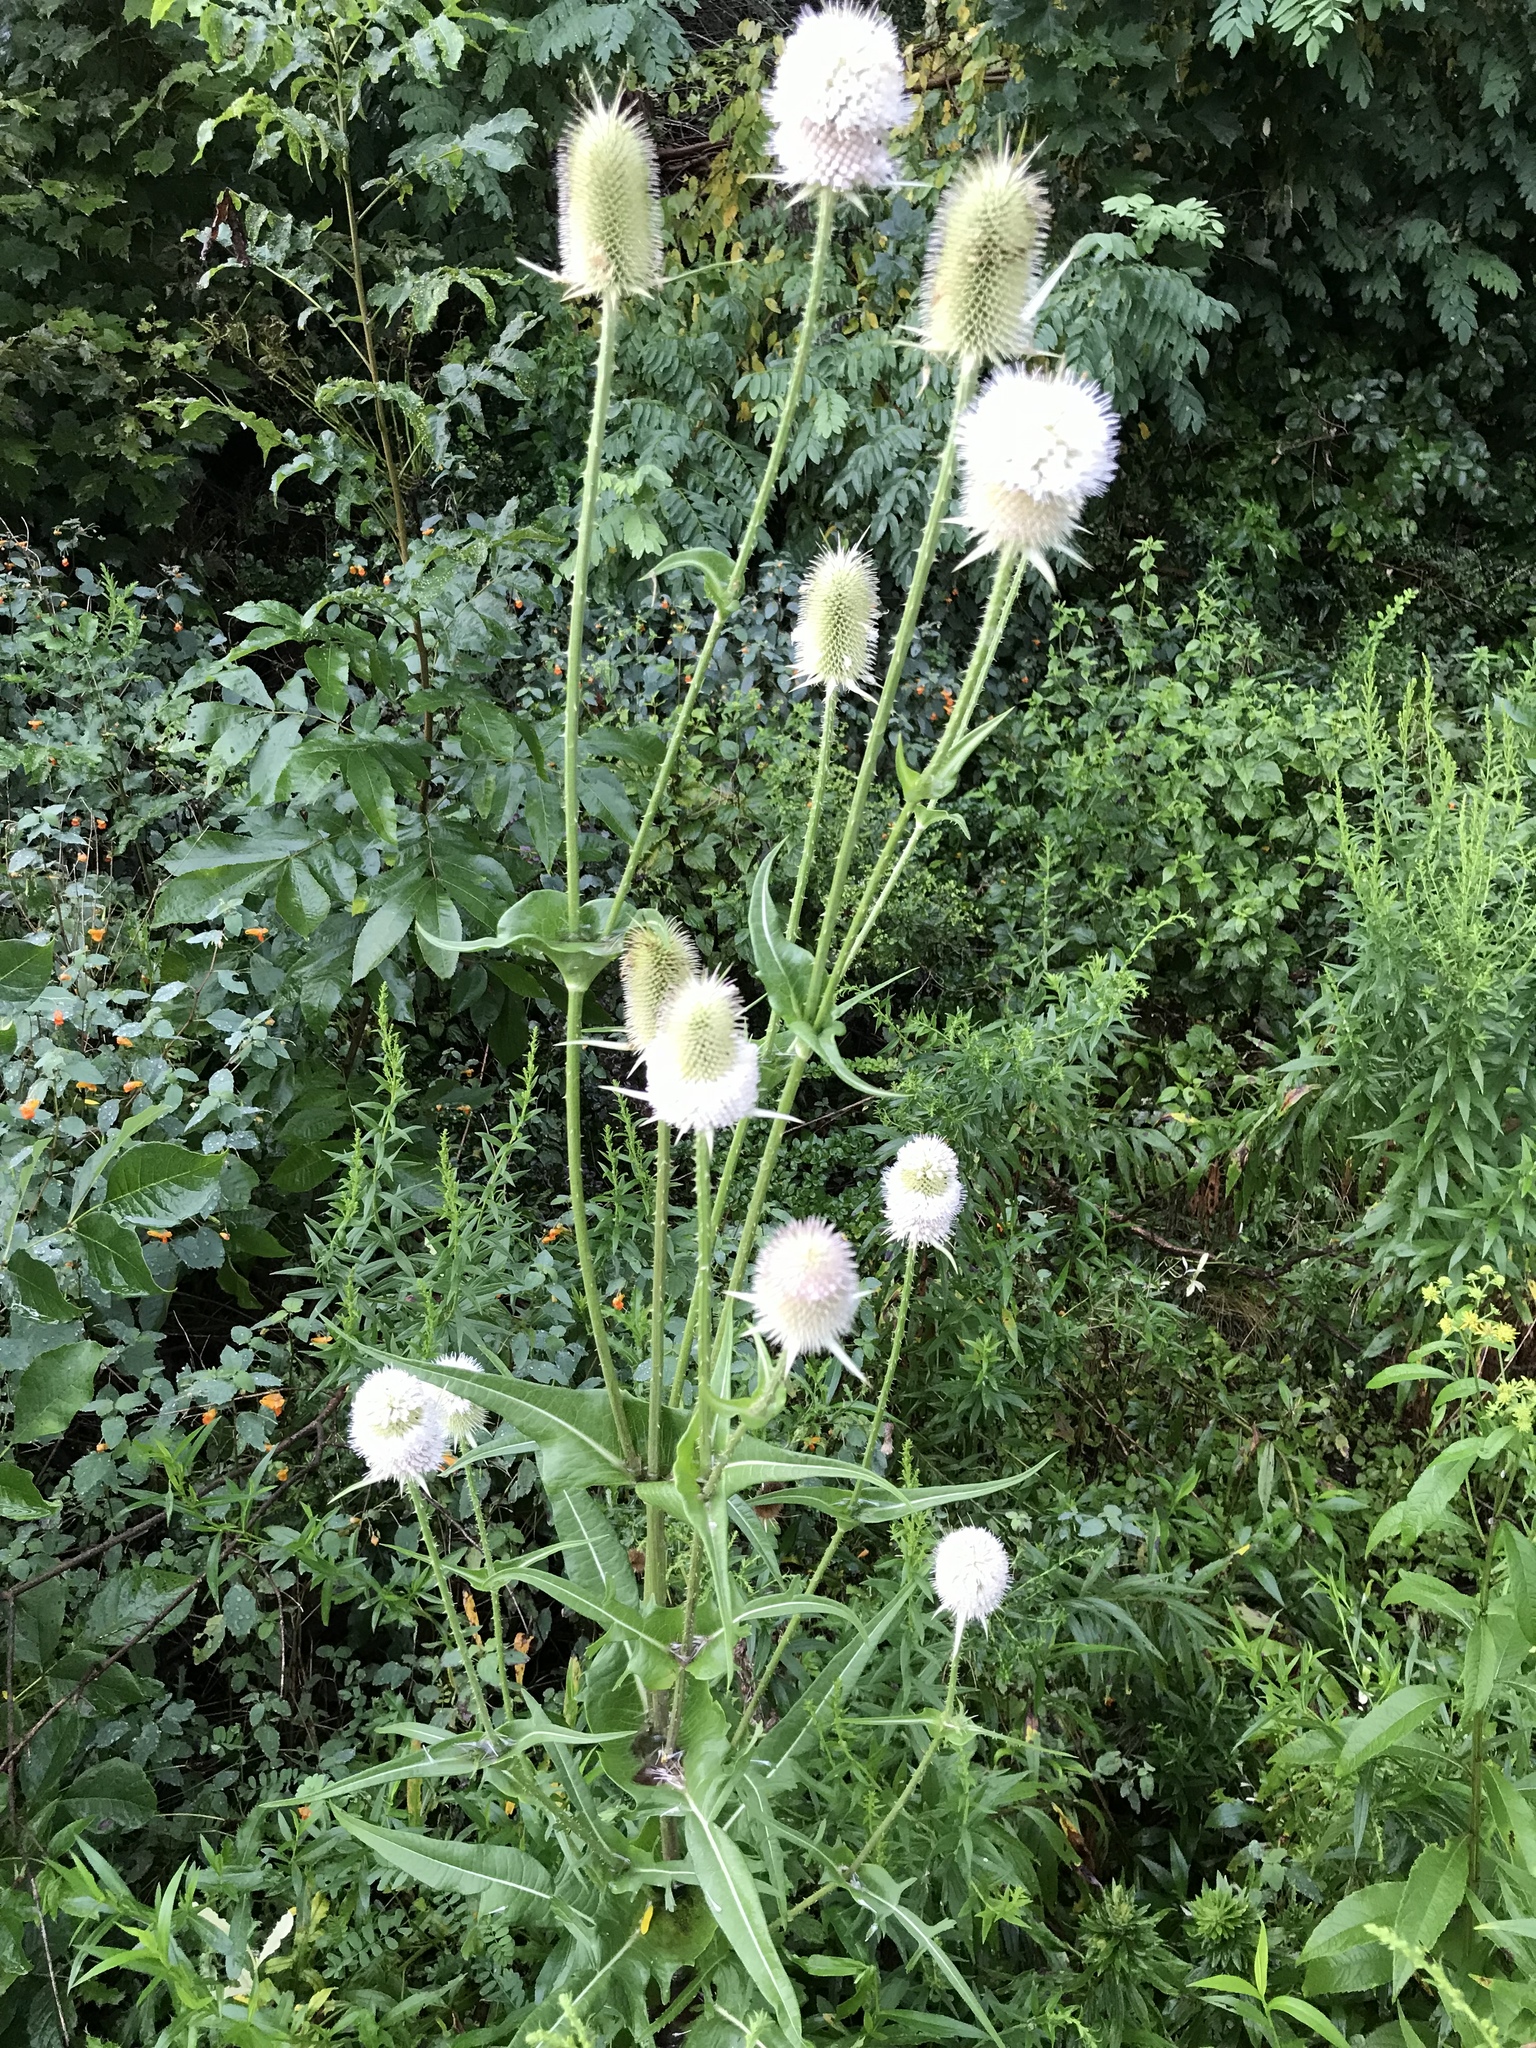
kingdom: Plantae
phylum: Tracheophyta
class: Magnoliopsida
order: Dipsacales
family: Caprifoliaceae
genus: Dipsacus
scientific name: Dipsacus laciniatus
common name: Cut-leaved teasel
